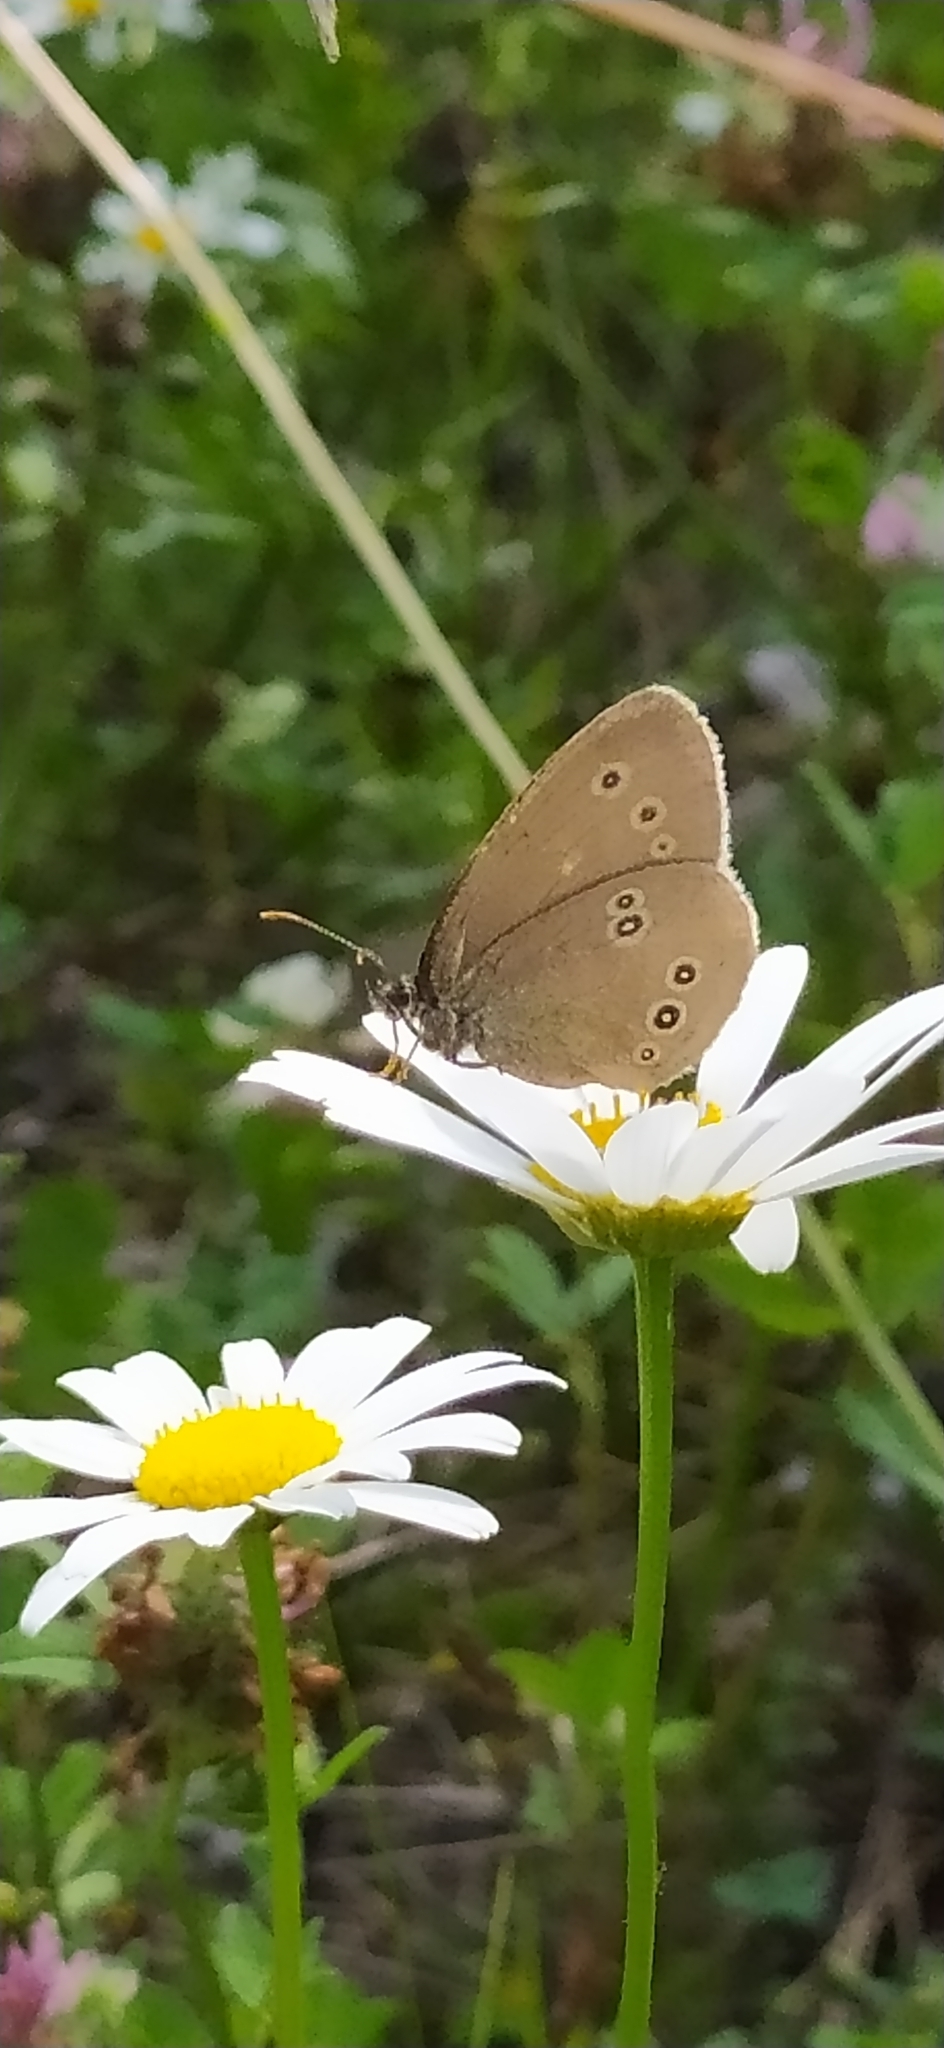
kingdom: Animalia
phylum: Arthropoda
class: Insecta
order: Lepidoptera
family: Nymphalidae
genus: Aphantopus
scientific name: Aphantopus hyperantus
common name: Ringlet
